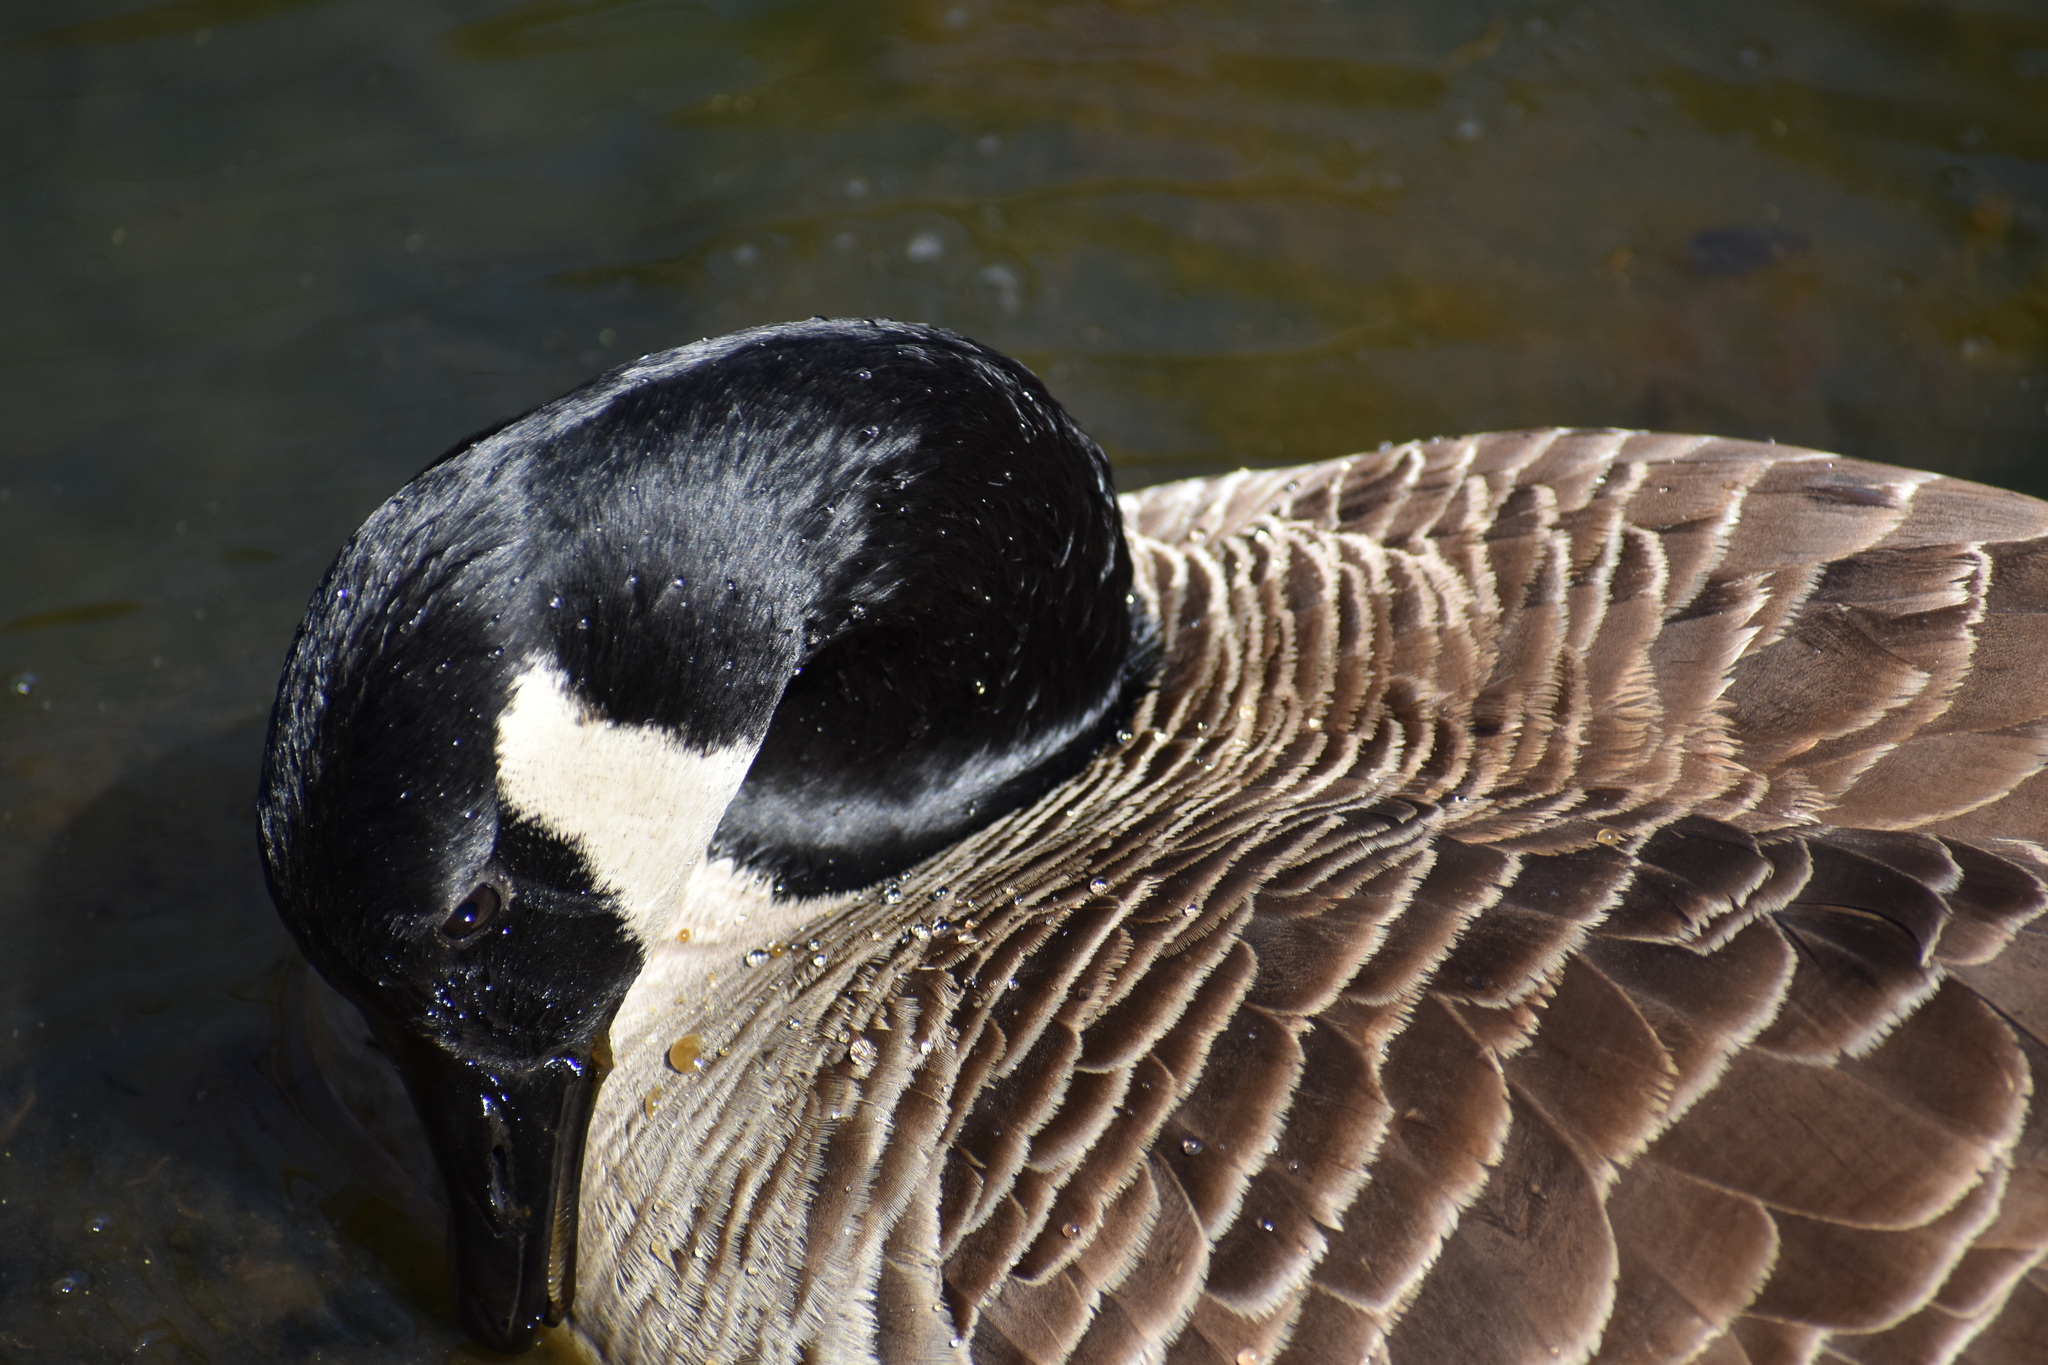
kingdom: Animalia
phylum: Chordata
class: Aves
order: Anseriformes
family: Anatidae
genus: Branta
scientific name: Branta canadensis
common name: Canada goose
